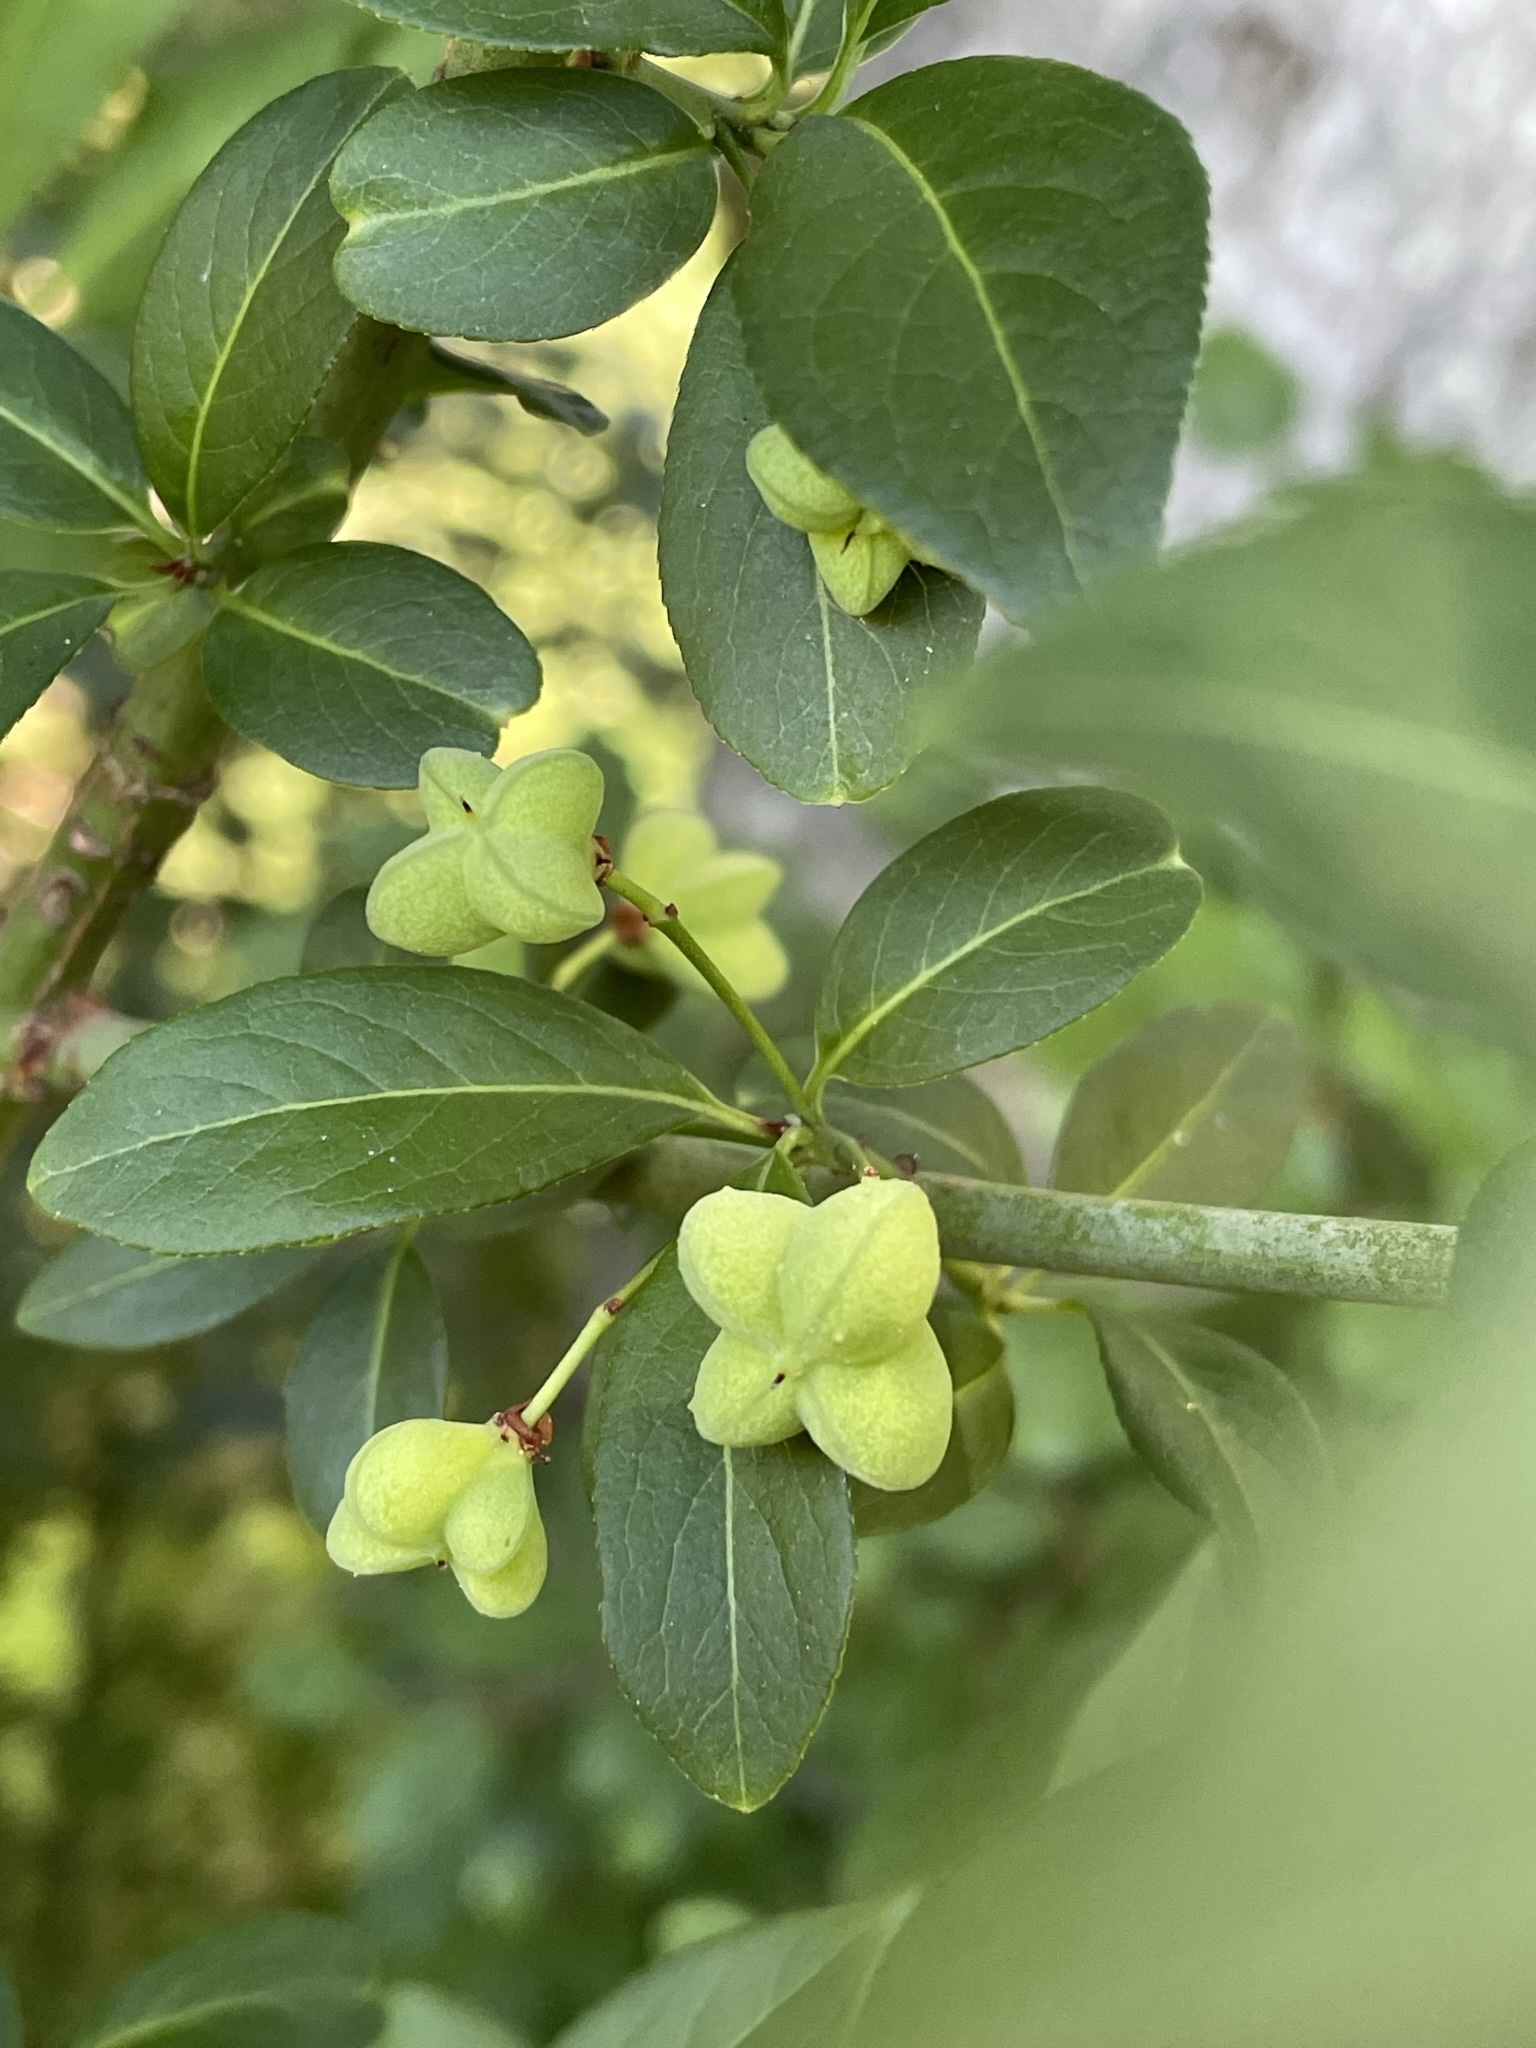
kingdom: Plantae
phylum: Tracheophyta
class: Magnoliopsida
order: Celastrales
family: Celastraceae
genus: Euonymus
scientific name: Euonymus europaeus
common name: Spindle
